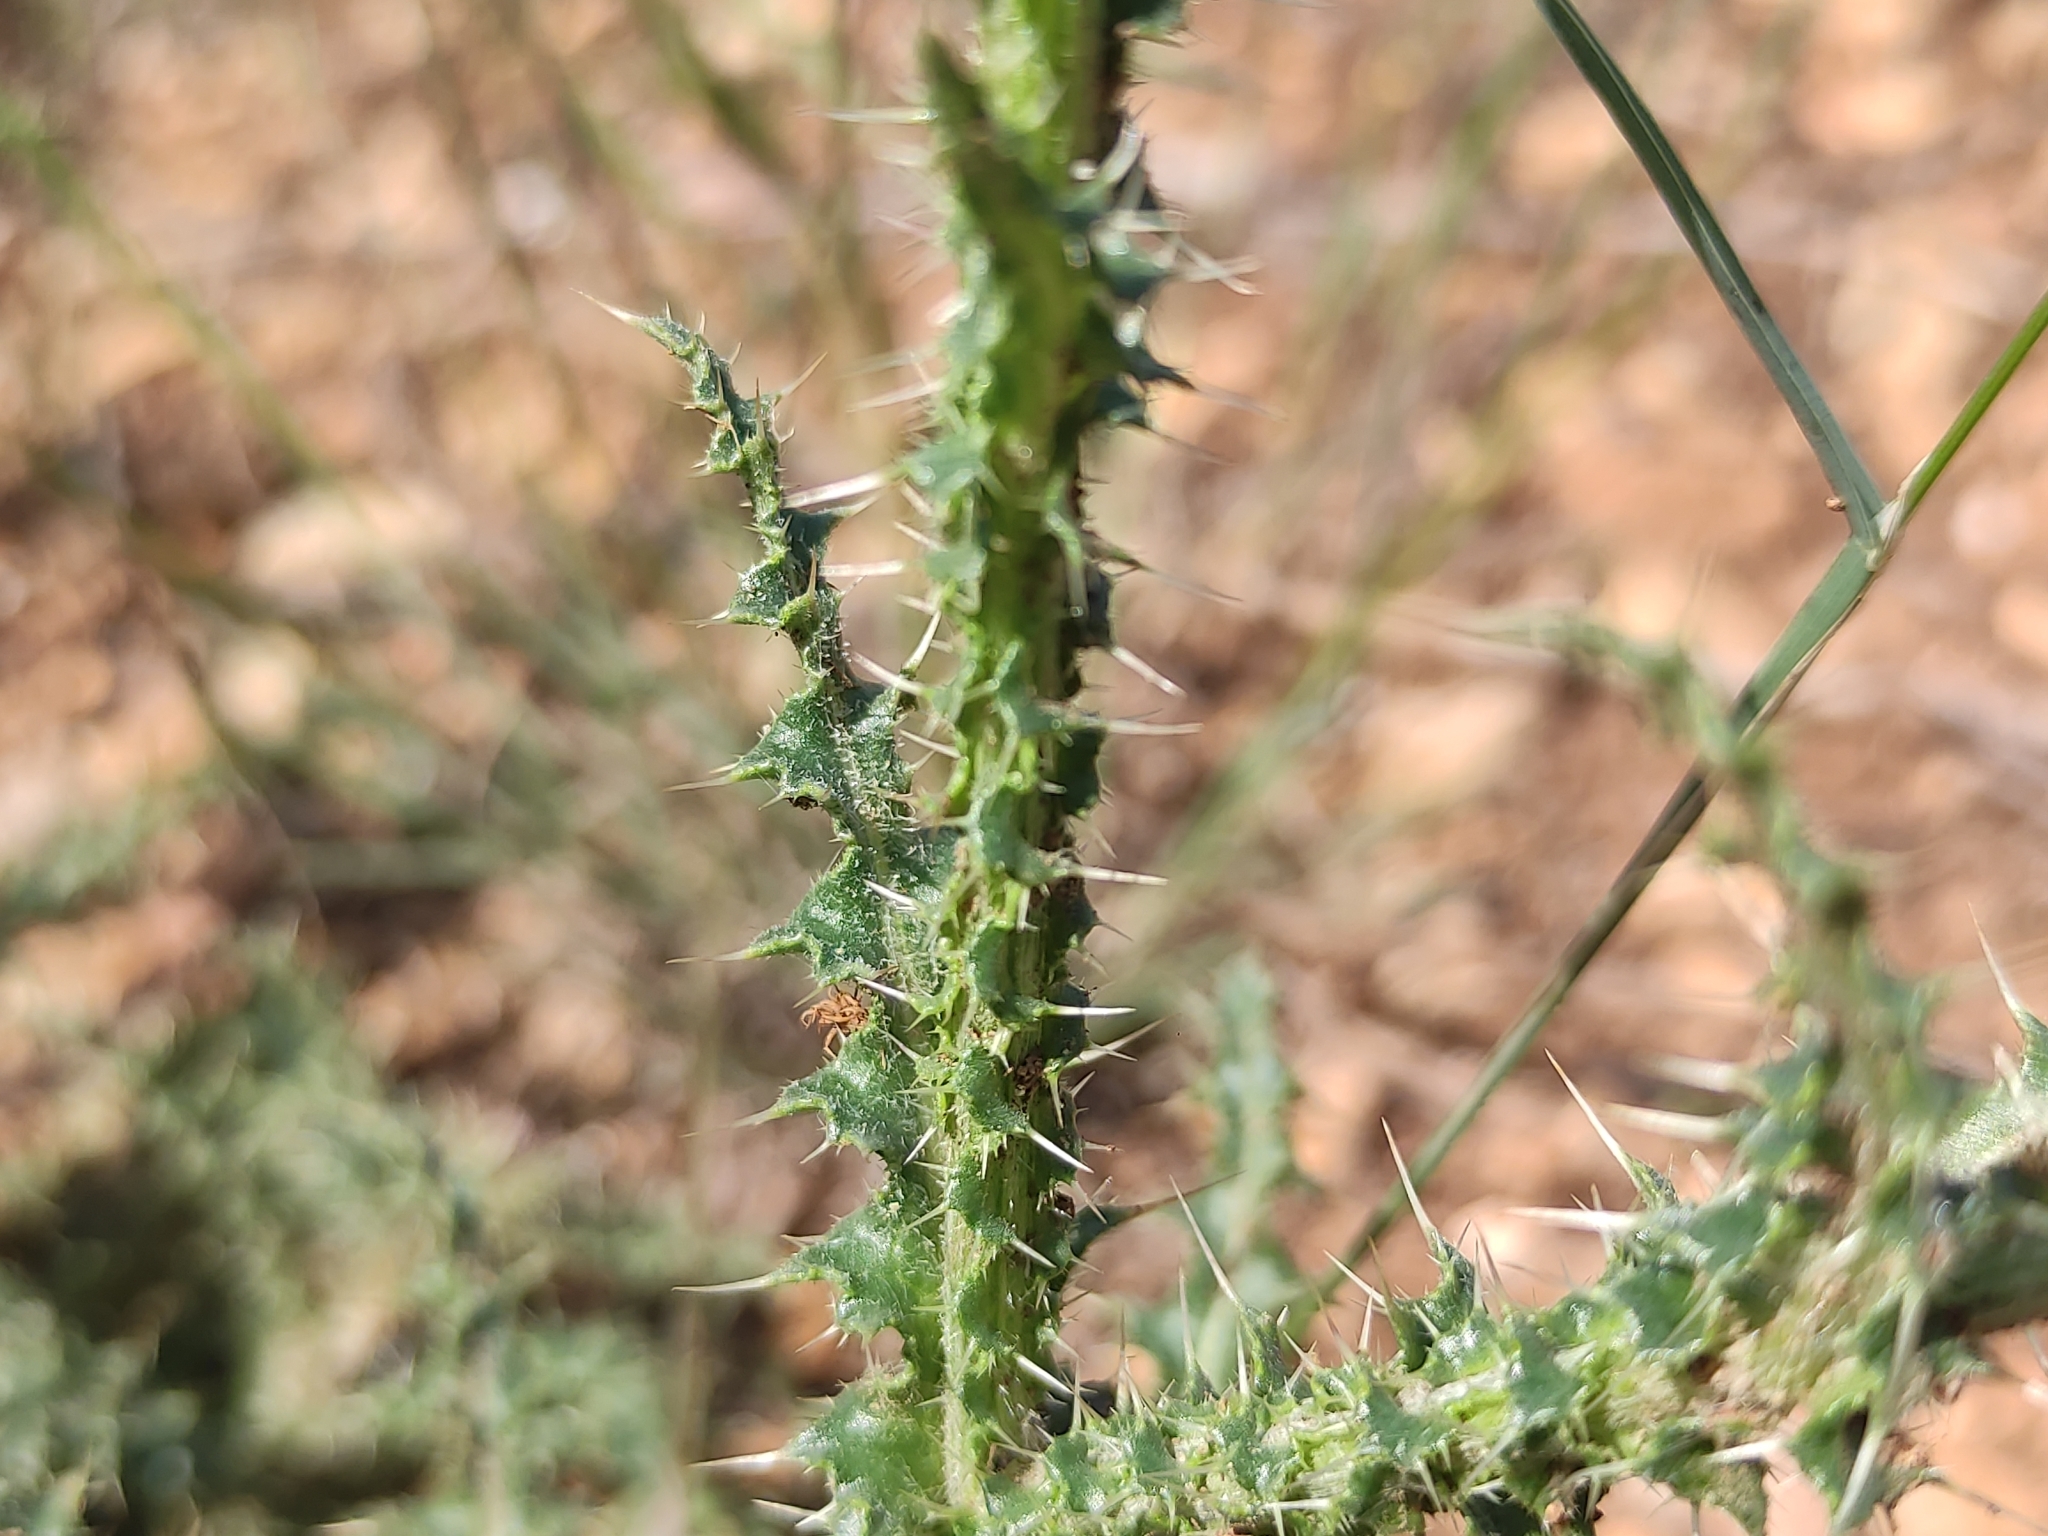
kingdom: Plantae
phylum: Tracheophyta
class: Magnoliopsida
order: Asterales
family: Asteraceae
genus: Carduus
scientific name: Carduus nigrescens
